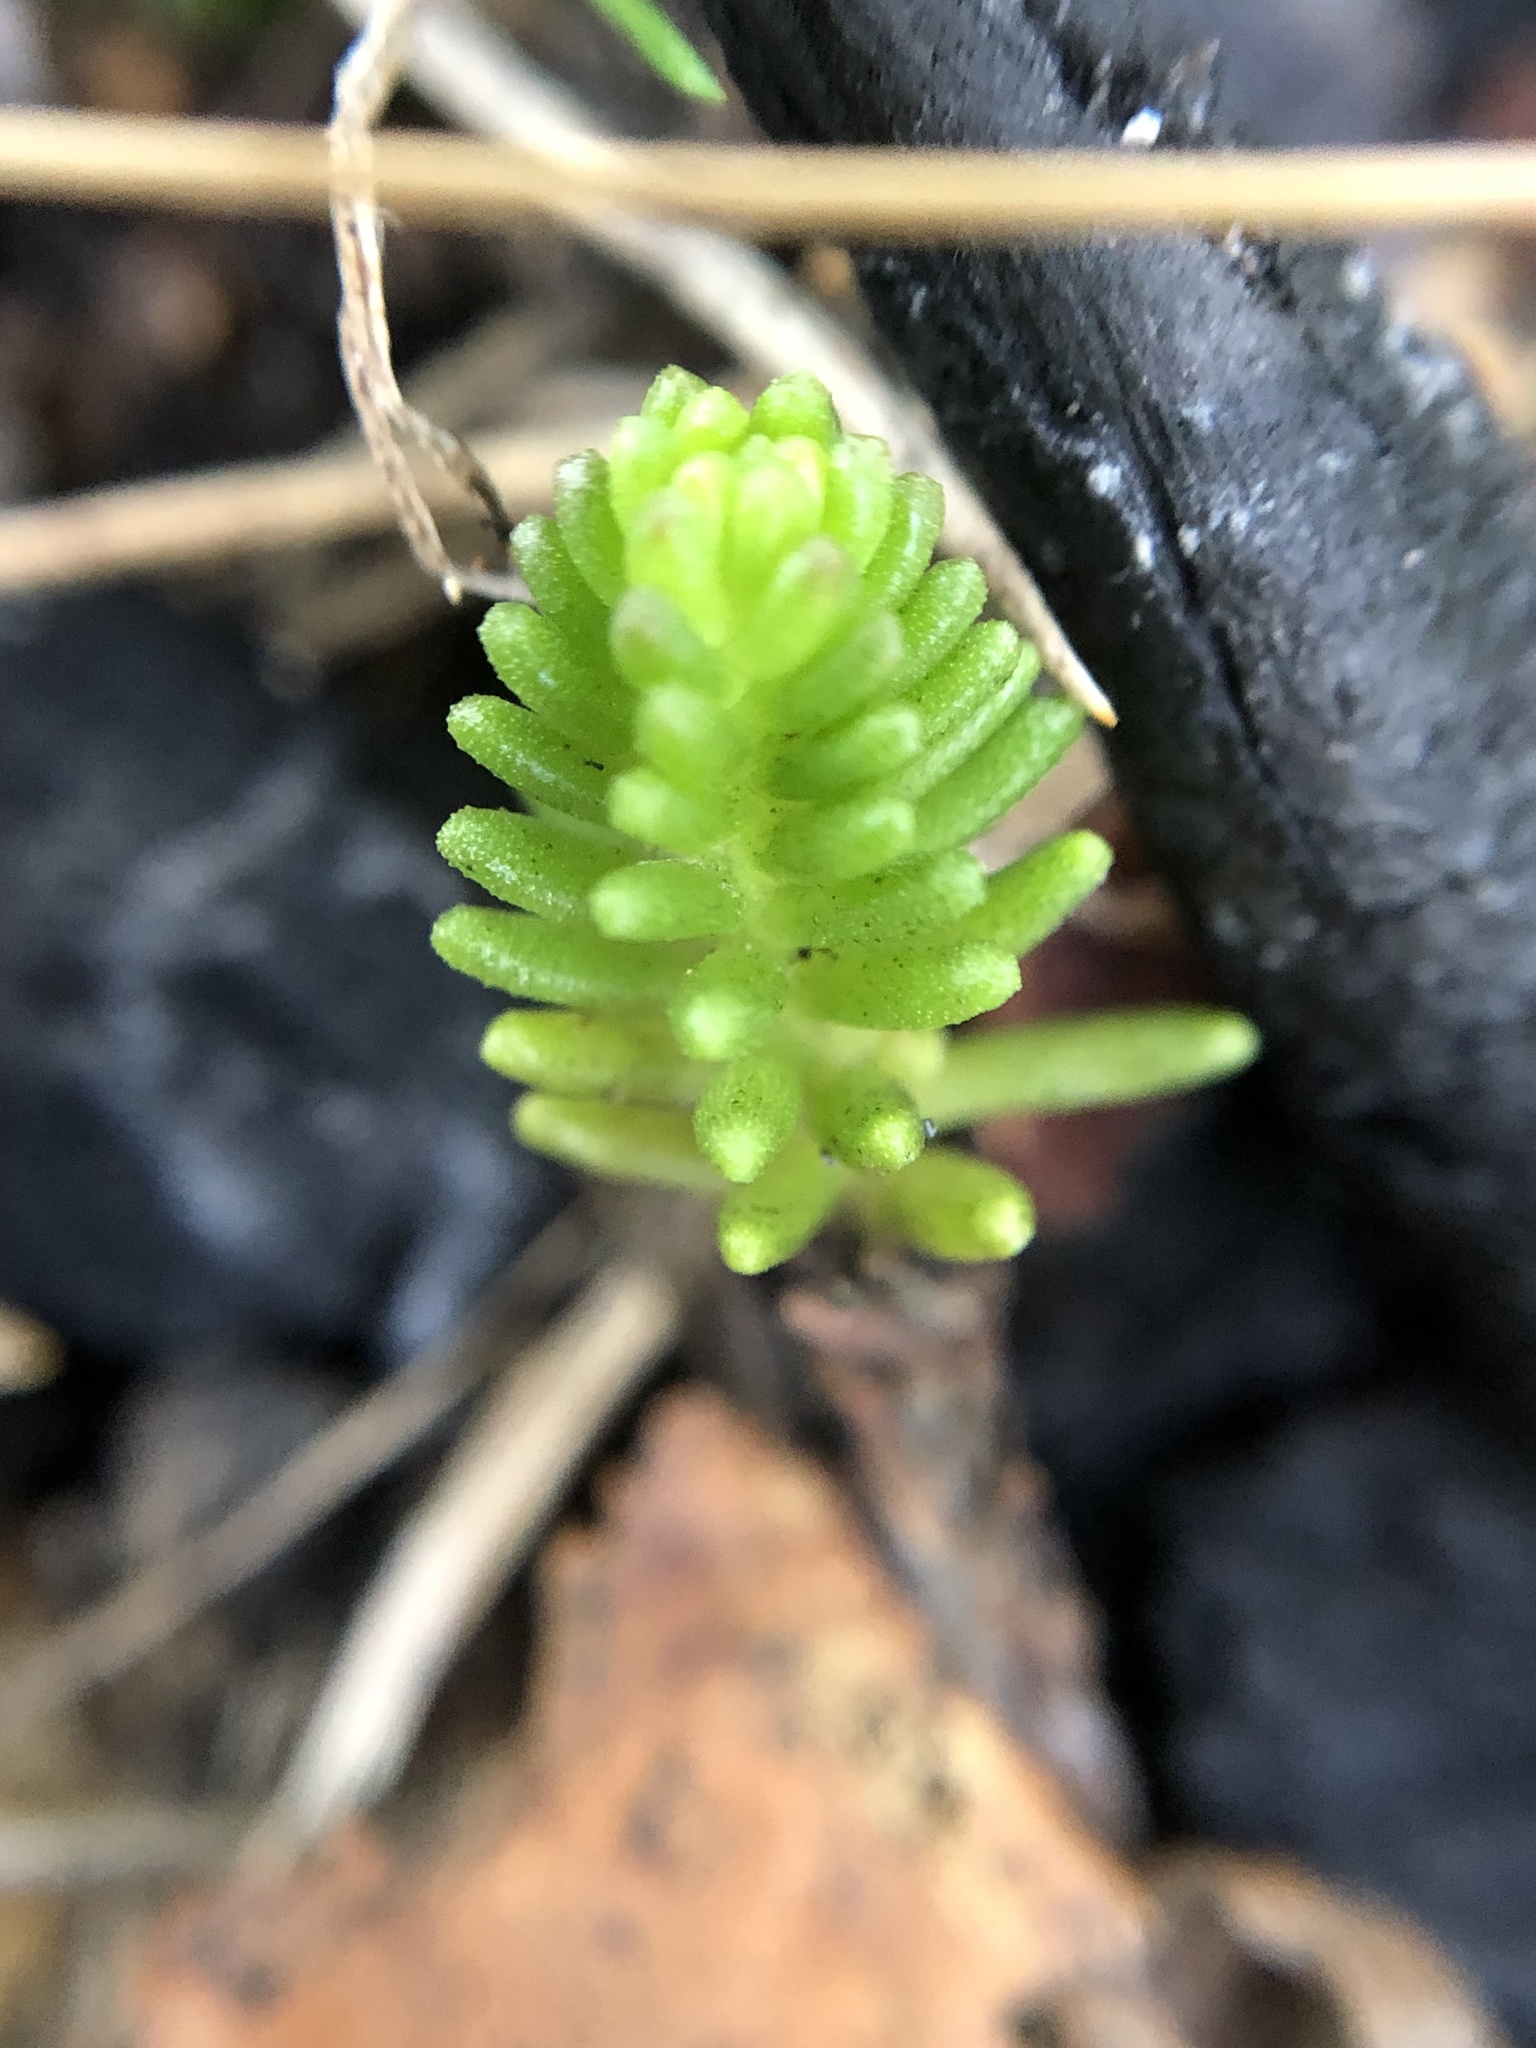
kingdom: Plantae
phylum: Tracheophyta
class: Magnoliopsida
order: Saxifragales
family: Crassulaceae
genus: Sedum
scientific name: Sedum sexangulare
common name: Tasteless stonecrop
